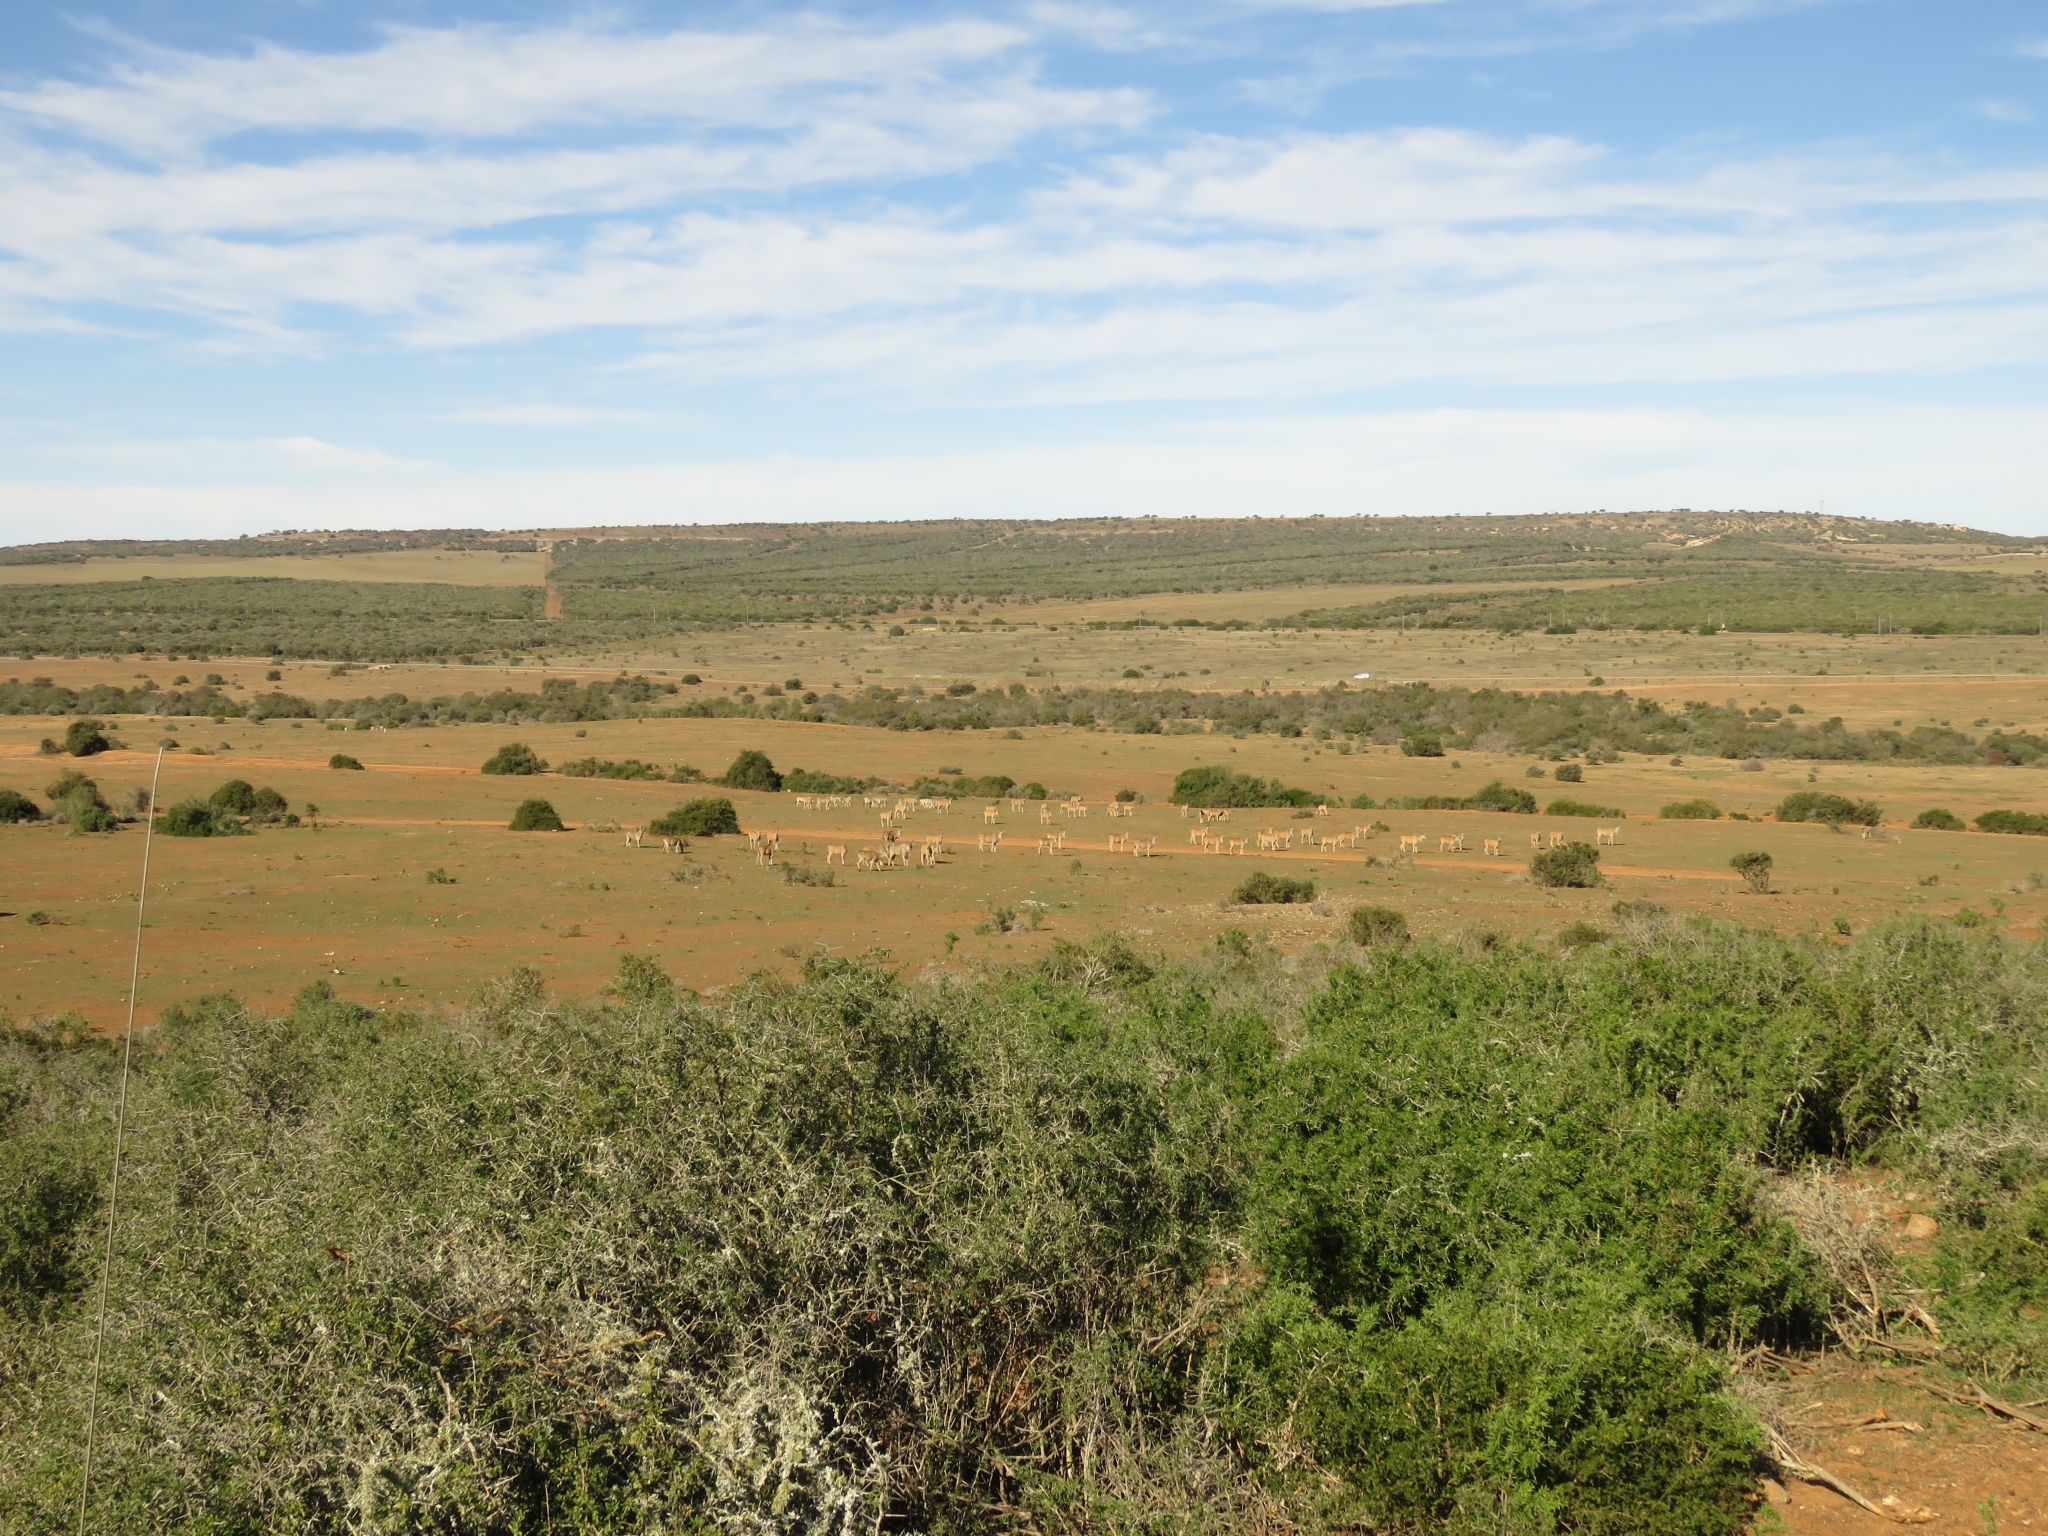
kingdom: Animalia
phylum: Chordata
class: Mammalia
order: Artiodactyla
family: Bovidae
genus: Taurotragus
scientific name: Taurotragus oryx
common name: Common eland
